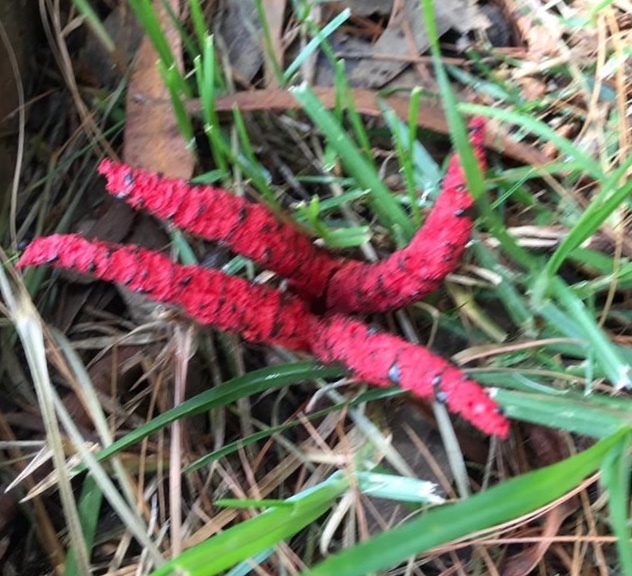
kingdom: Fungi
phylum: Basidiomycota
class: Agaricomycetes
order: Phallales
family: Phallaceae
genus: Clathrus
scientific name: Clathrus archeri
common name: Devil's fingers
